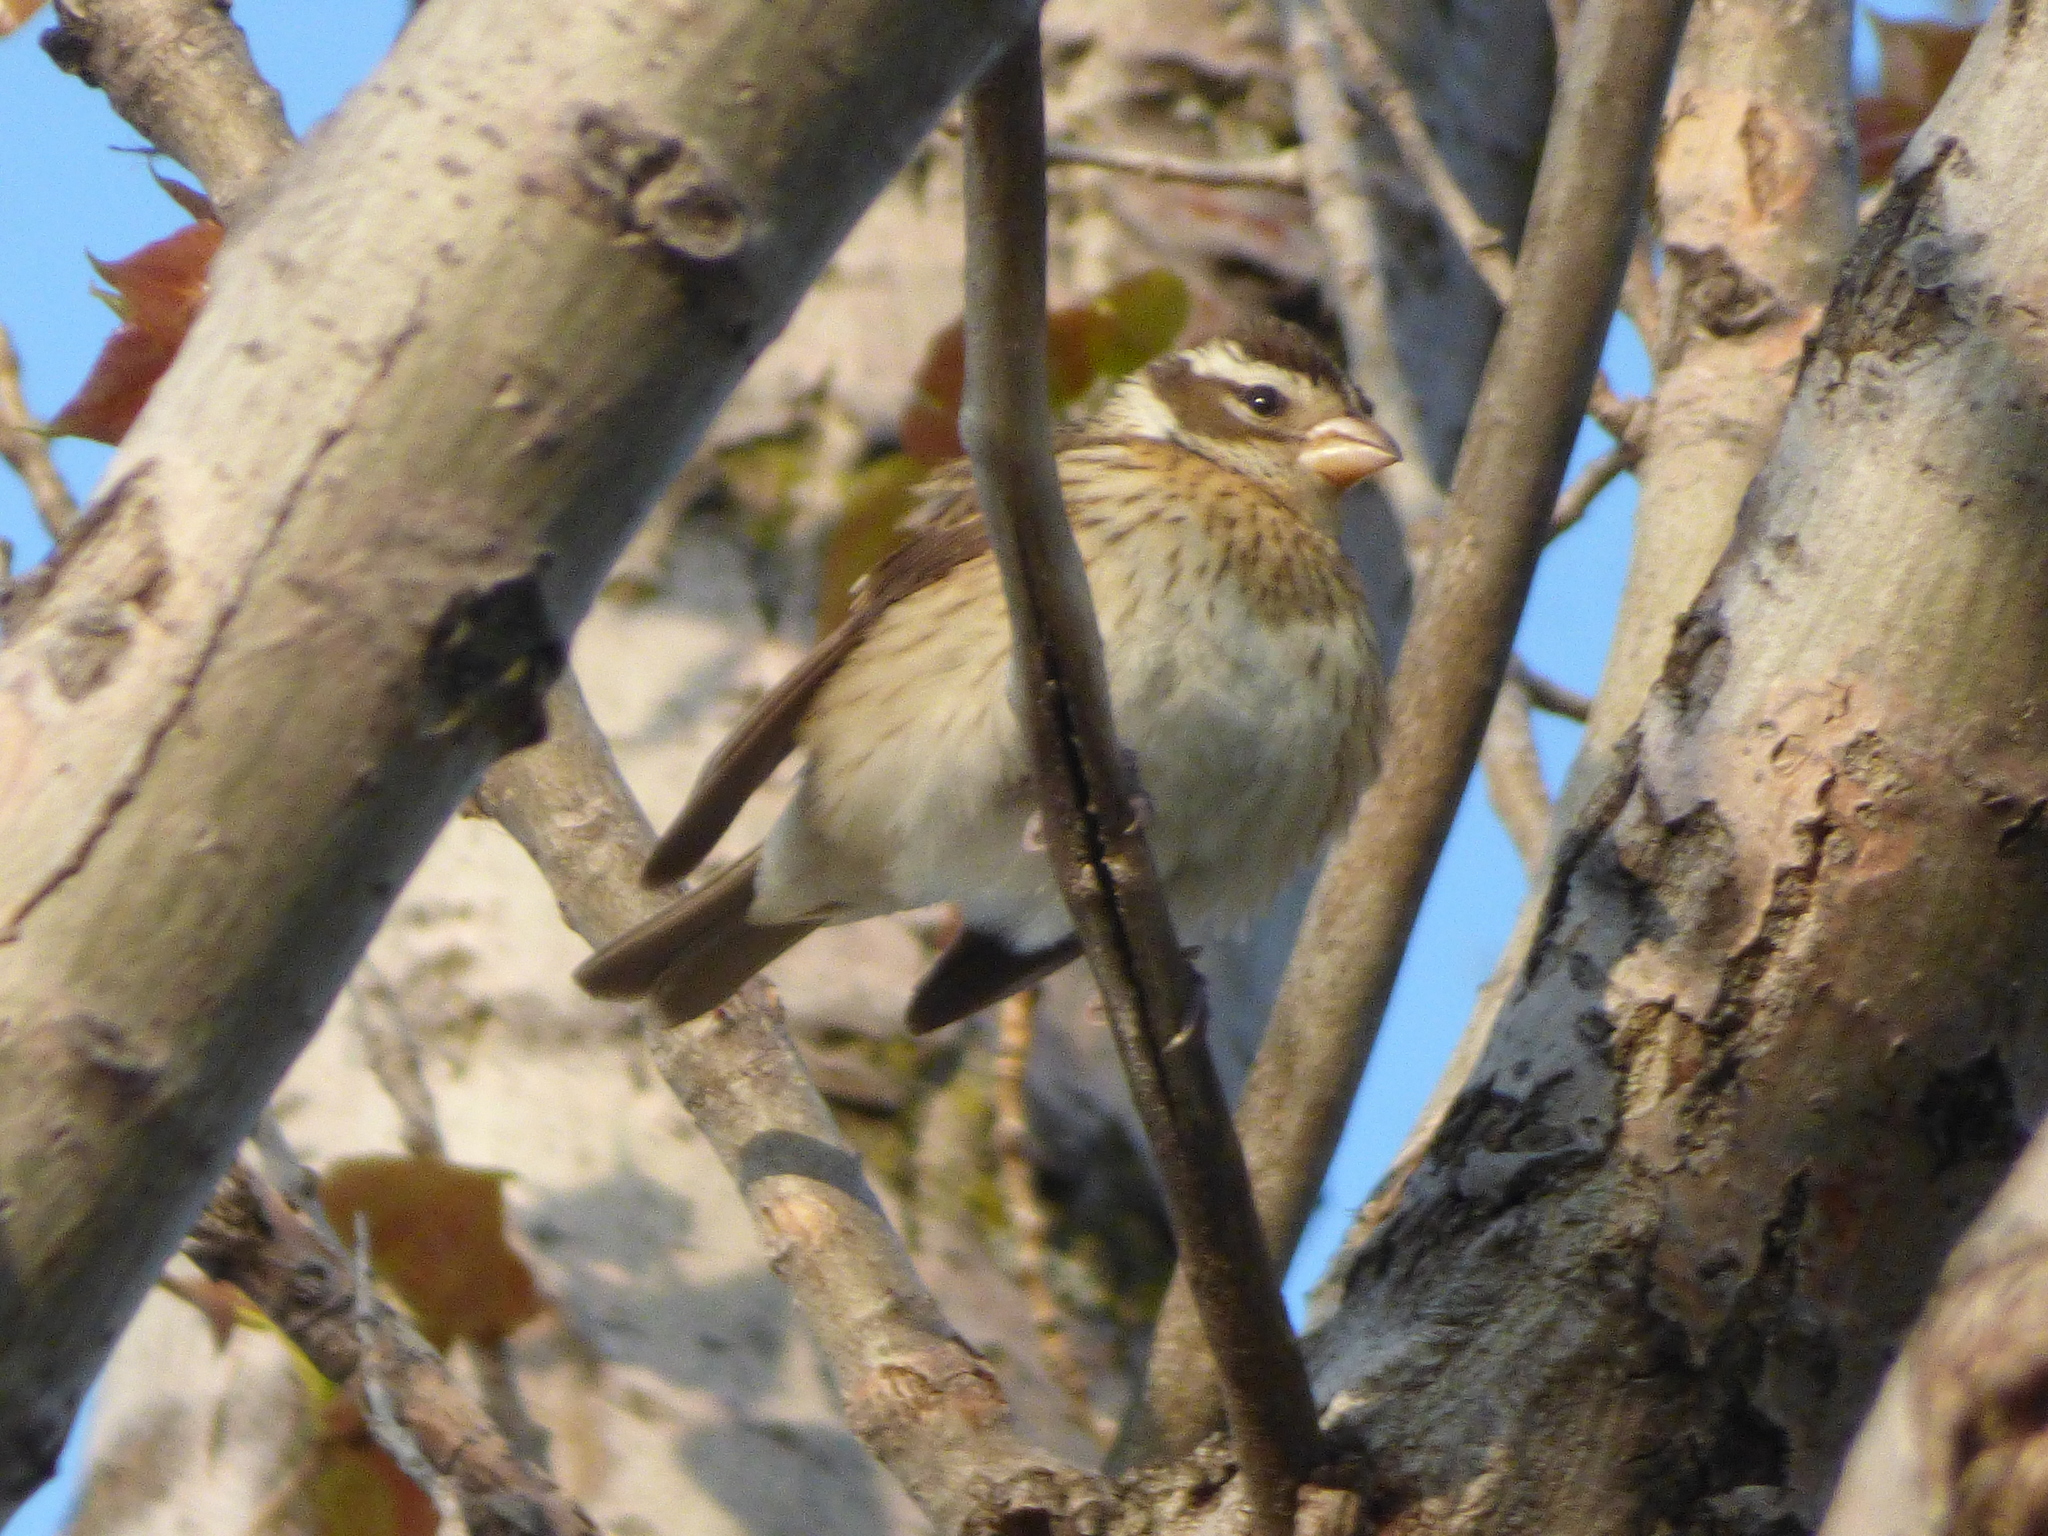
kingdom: Animalia
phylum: Chordata
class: Aves
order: Passeriformes
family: Cardinalidae
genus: Pheucticus
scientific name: Pheucticus ludovicianus
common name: Rose-breasted grosbeak
